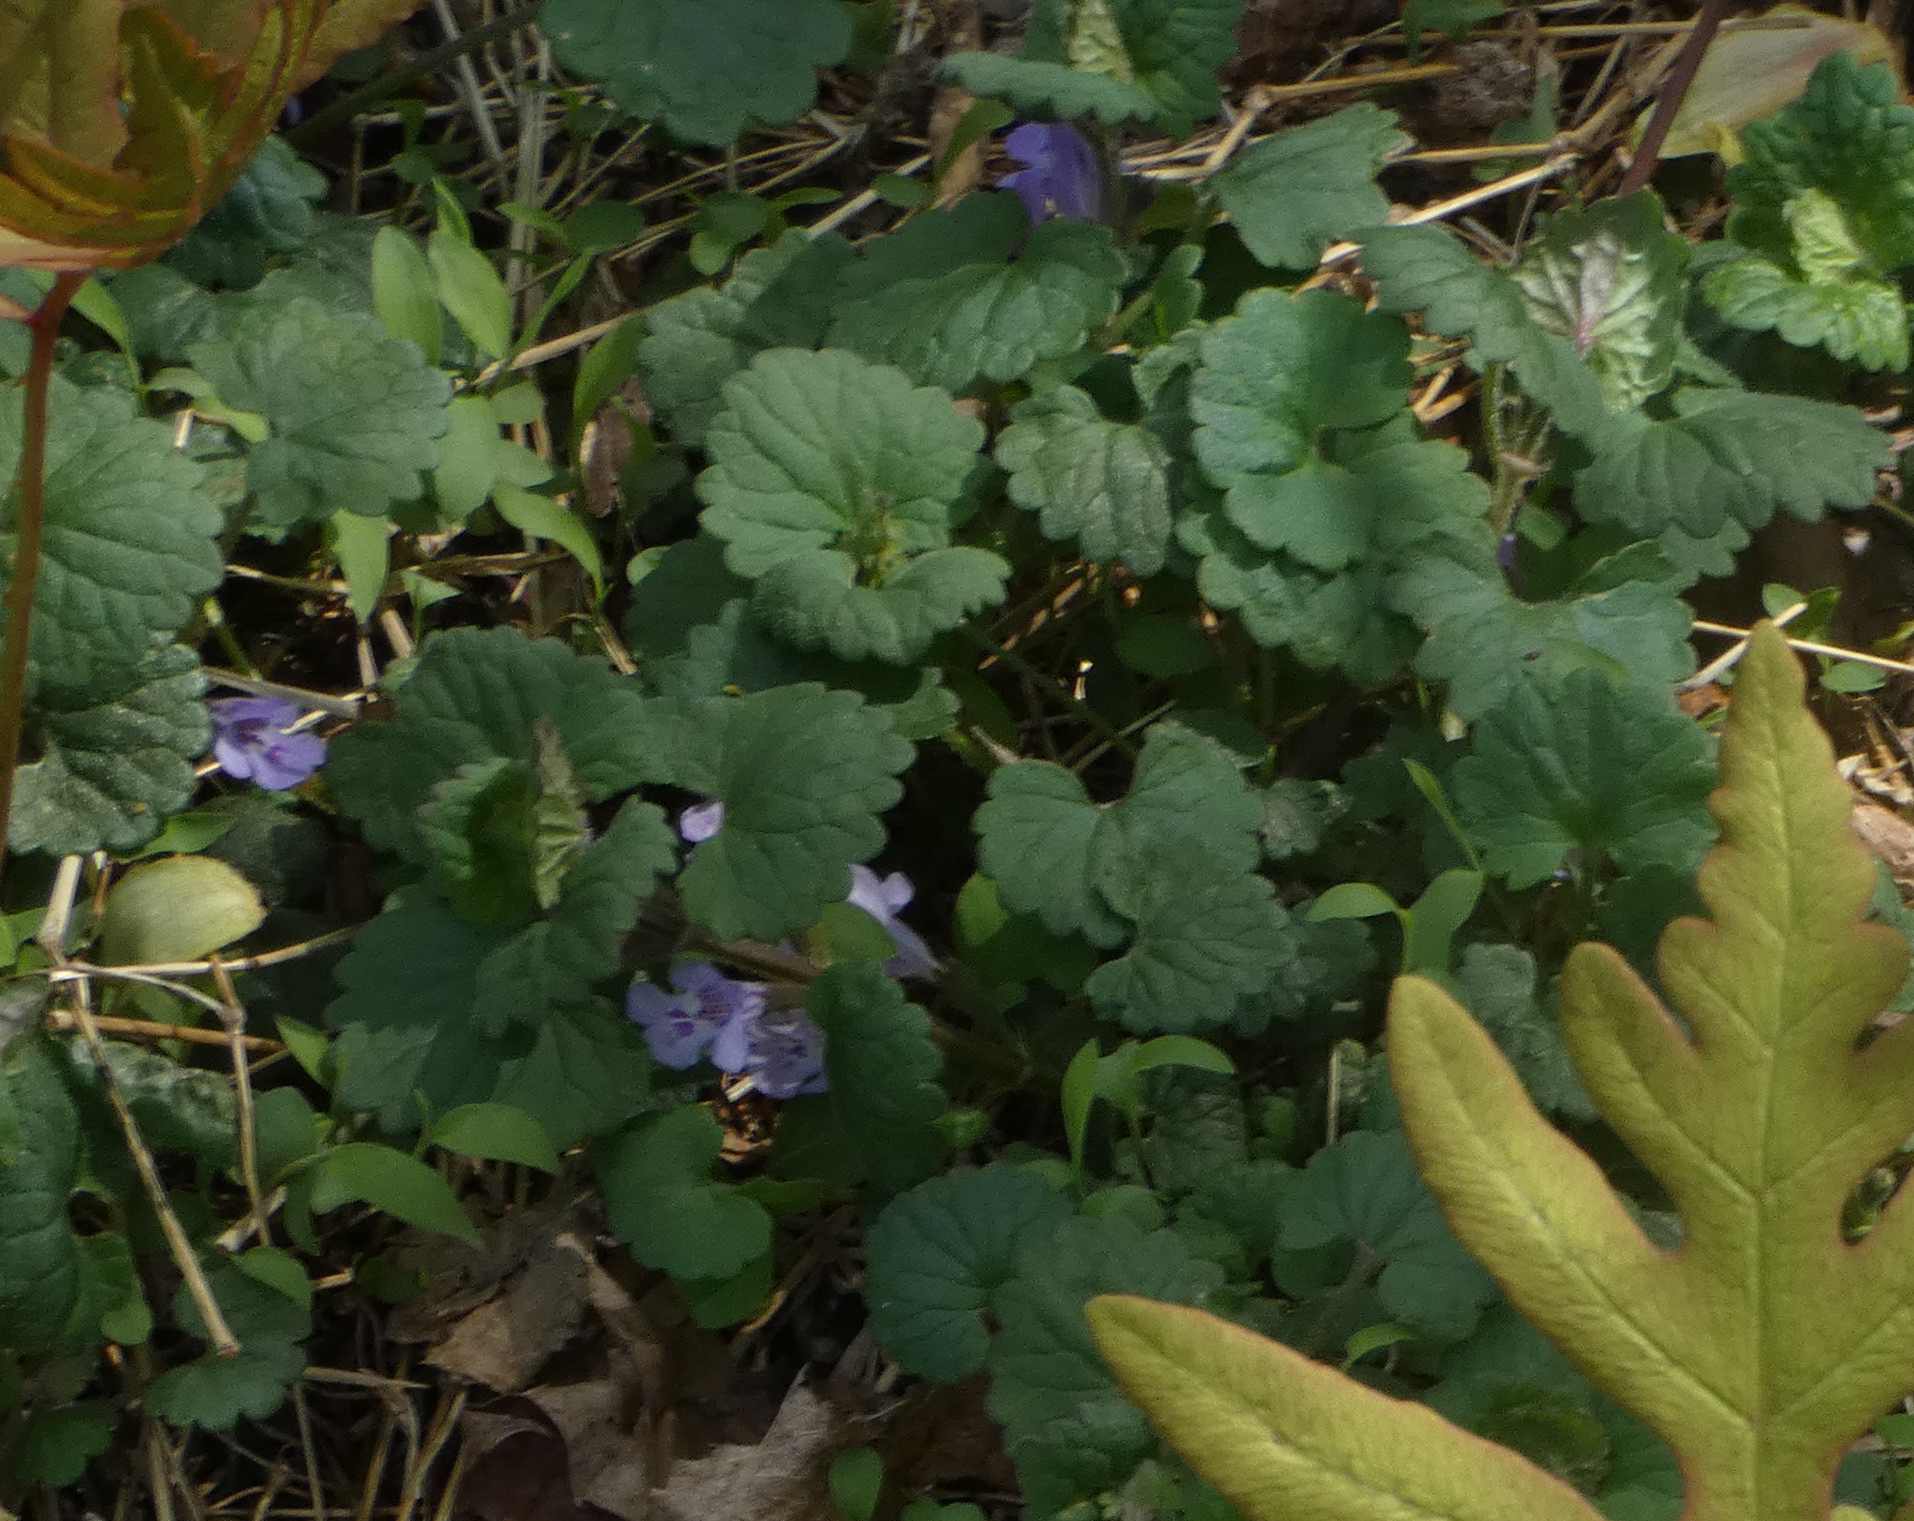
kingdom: Plantae
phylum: Tracheophyta
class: Magnoliopsida
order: Lamiales
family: Lamiaceae
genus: Glechoma
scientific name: Glechoma hederacea
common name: Ground ivy
